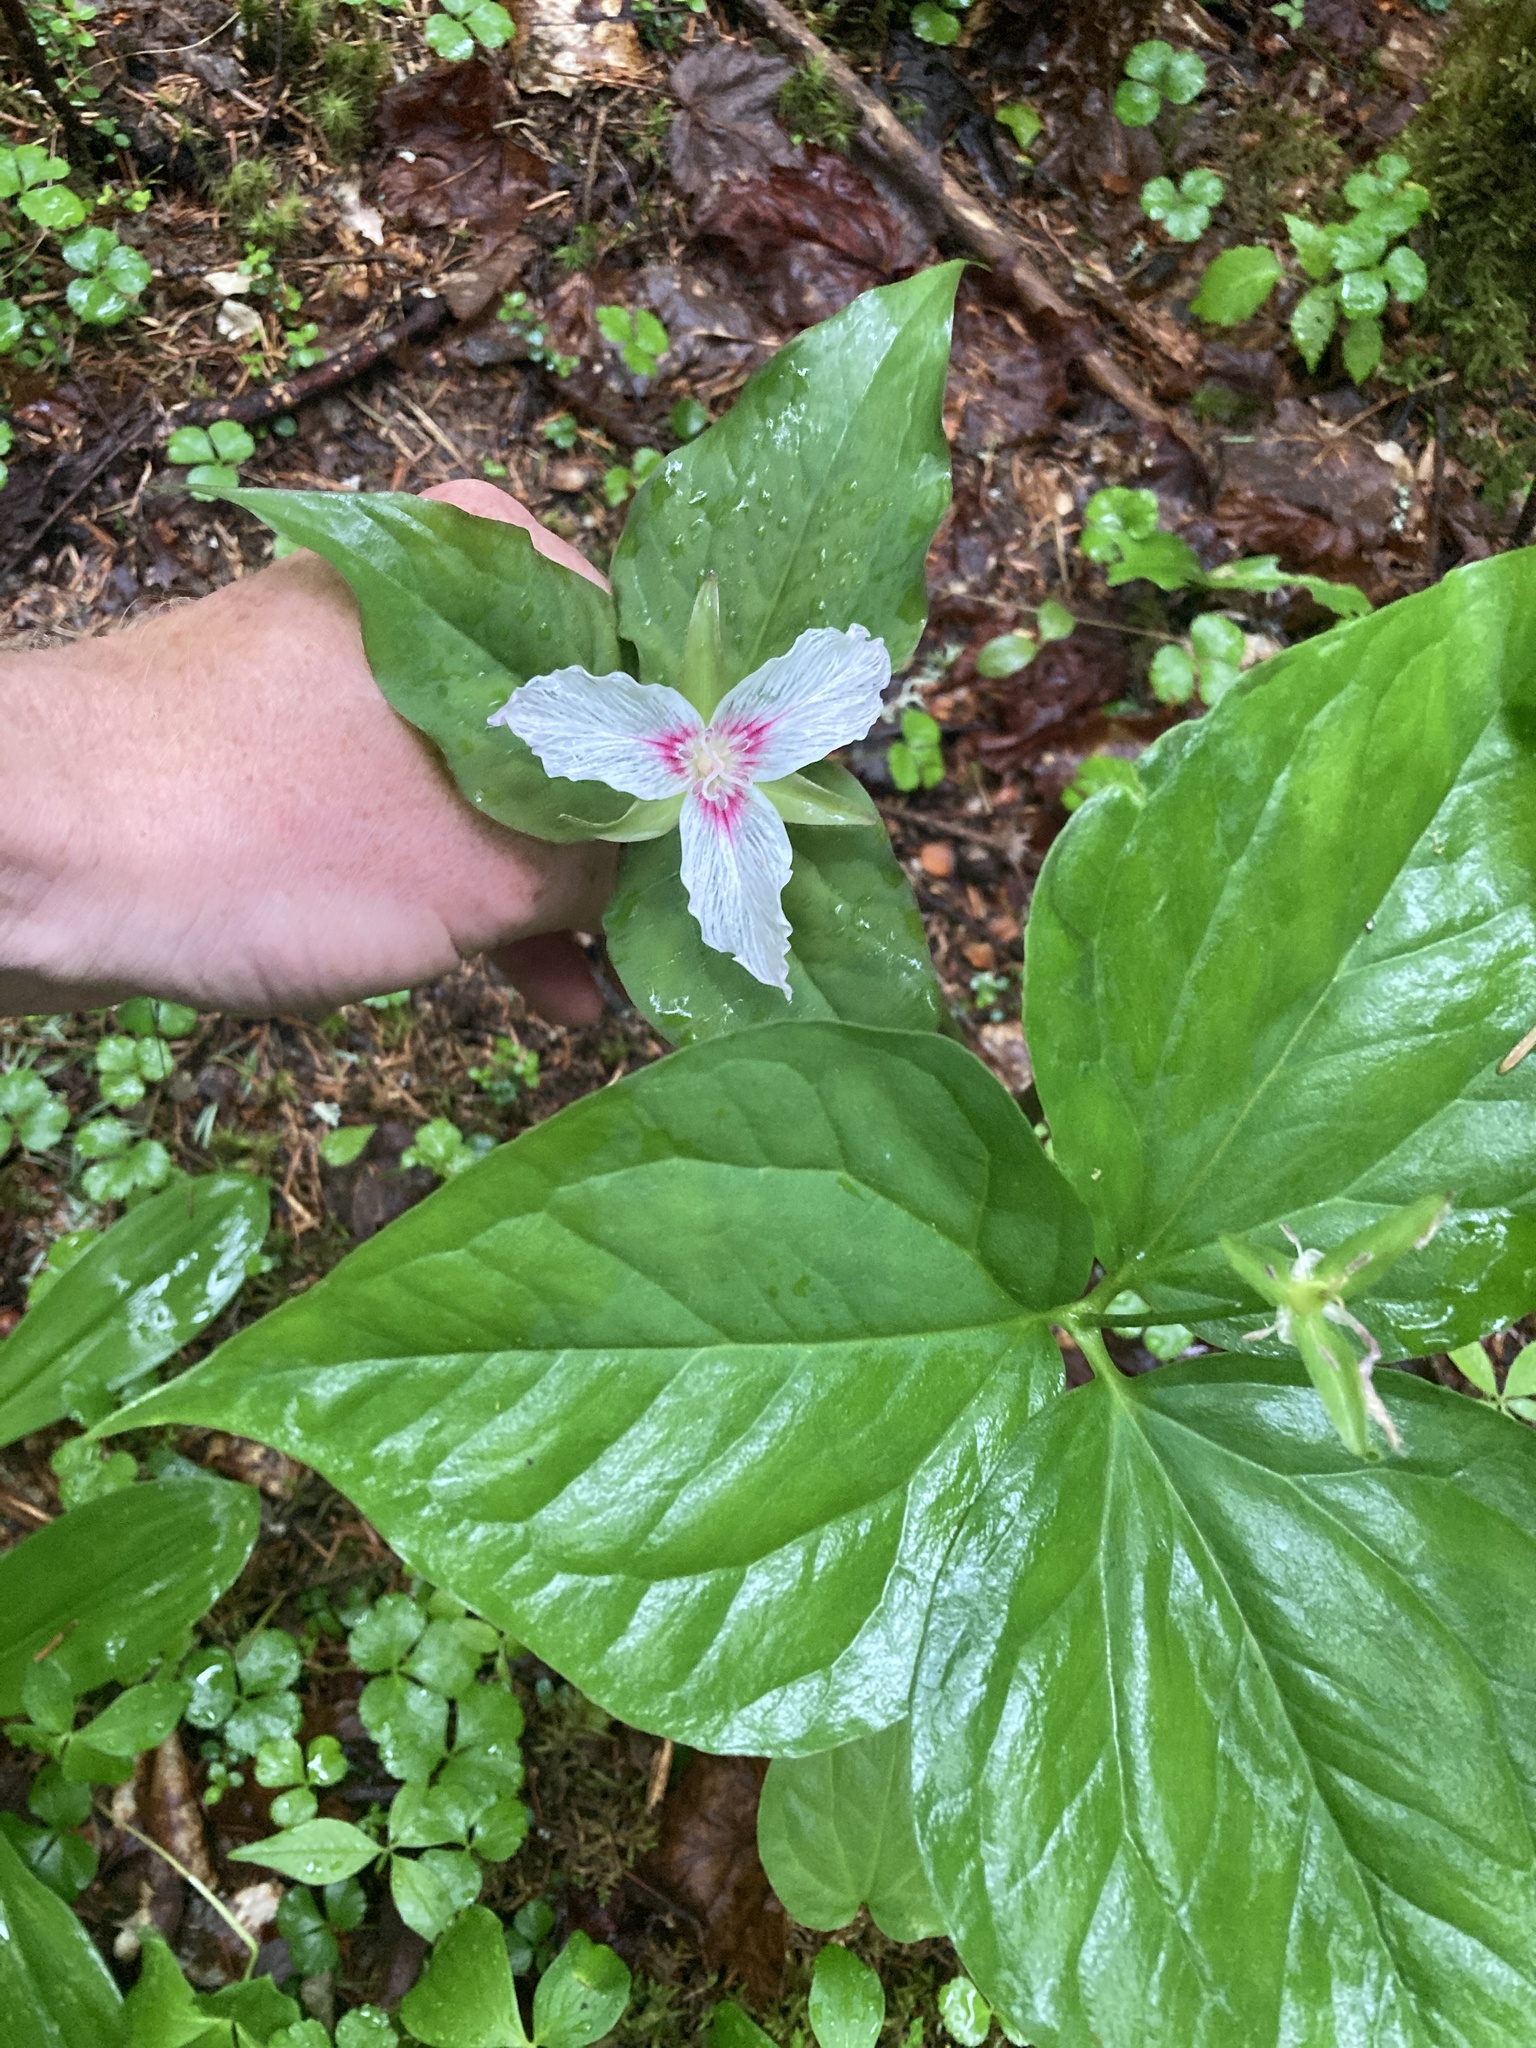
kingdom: Plantae
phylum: Tracheophyta
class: Liliopsida
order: Liliales
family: Melanthiaceae
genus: Trillium
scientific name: Trillium undulatum
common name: Paint trillium
